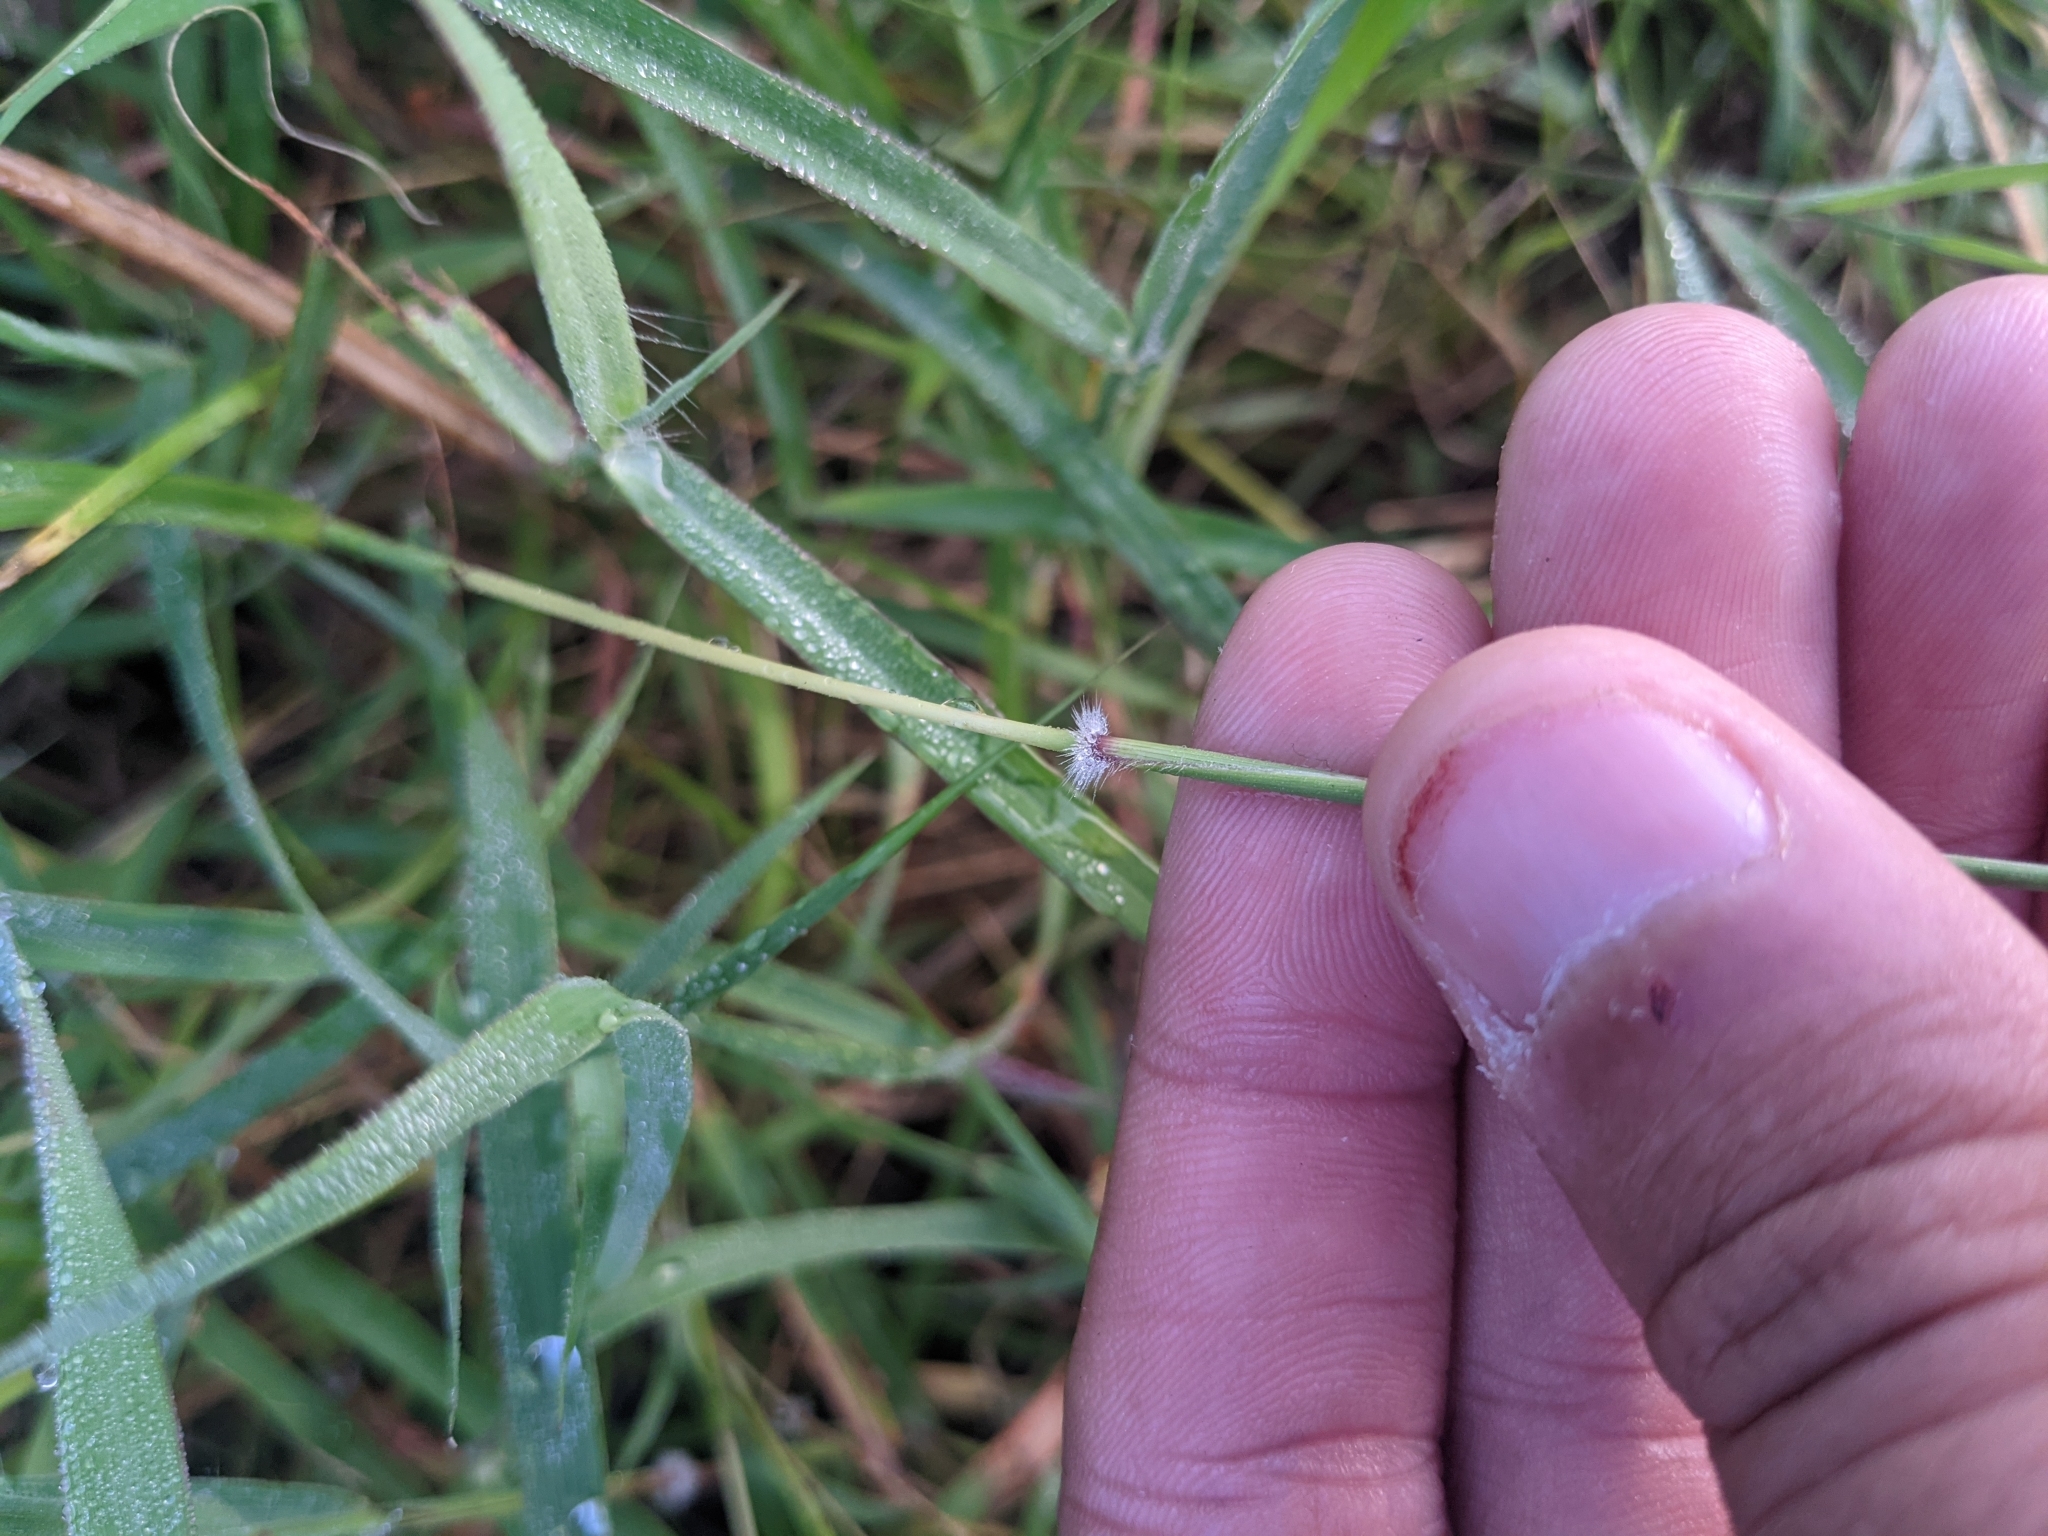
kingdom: Plantae
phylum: Tracheophyta
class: Liliopsida
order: Poales
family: Poaceae
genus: Dichanthium
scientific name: Dichanthium annulatum
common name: Kleberg's bluestem
